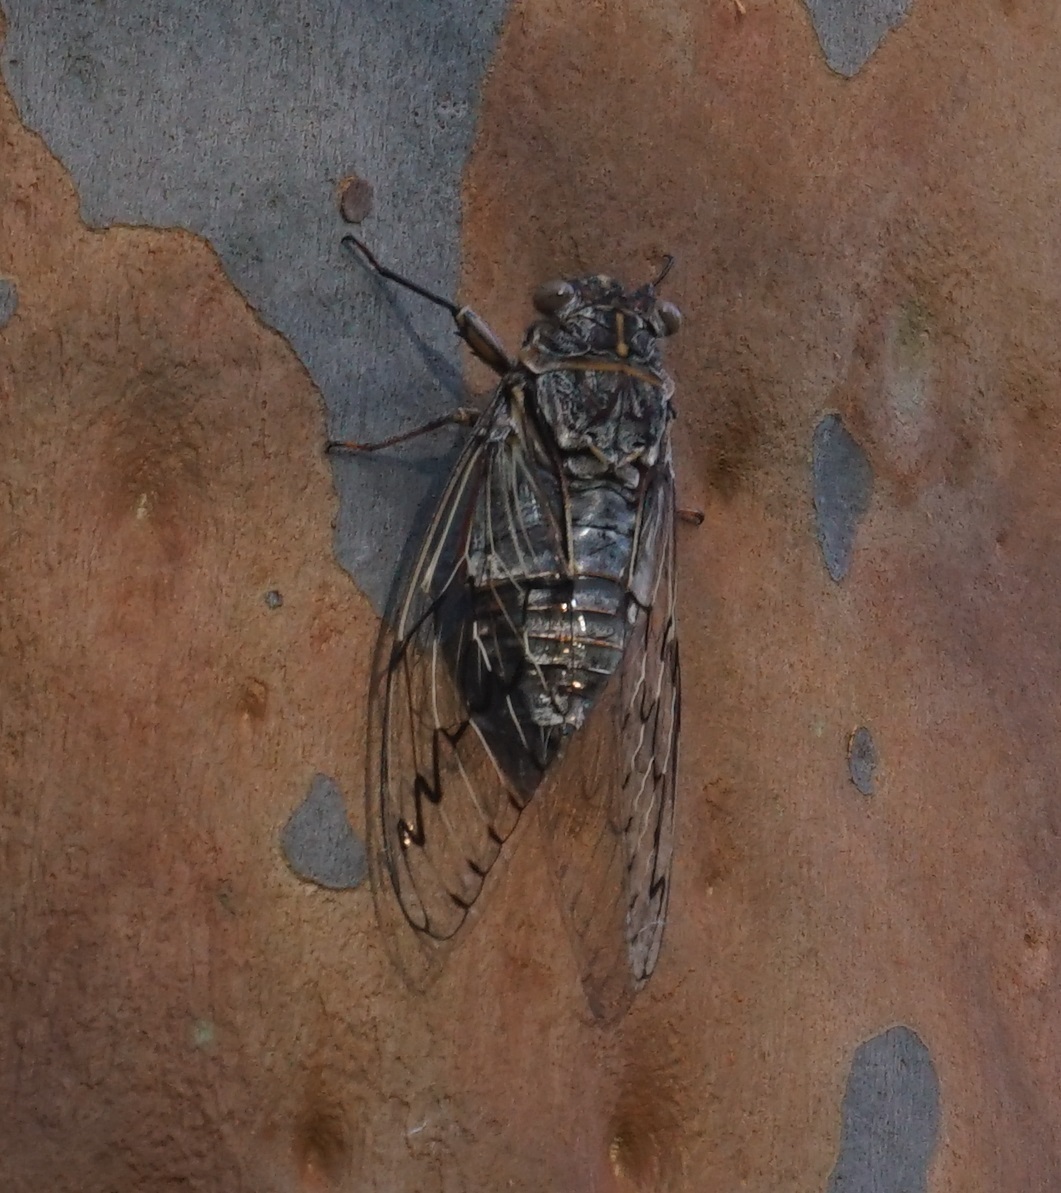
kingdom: Animalia
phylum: Arthropoda
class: Insecta
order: Hemiptera
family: Cicadidae
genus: Henicopsaltria
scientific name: Henicopsaltria eydouxii
